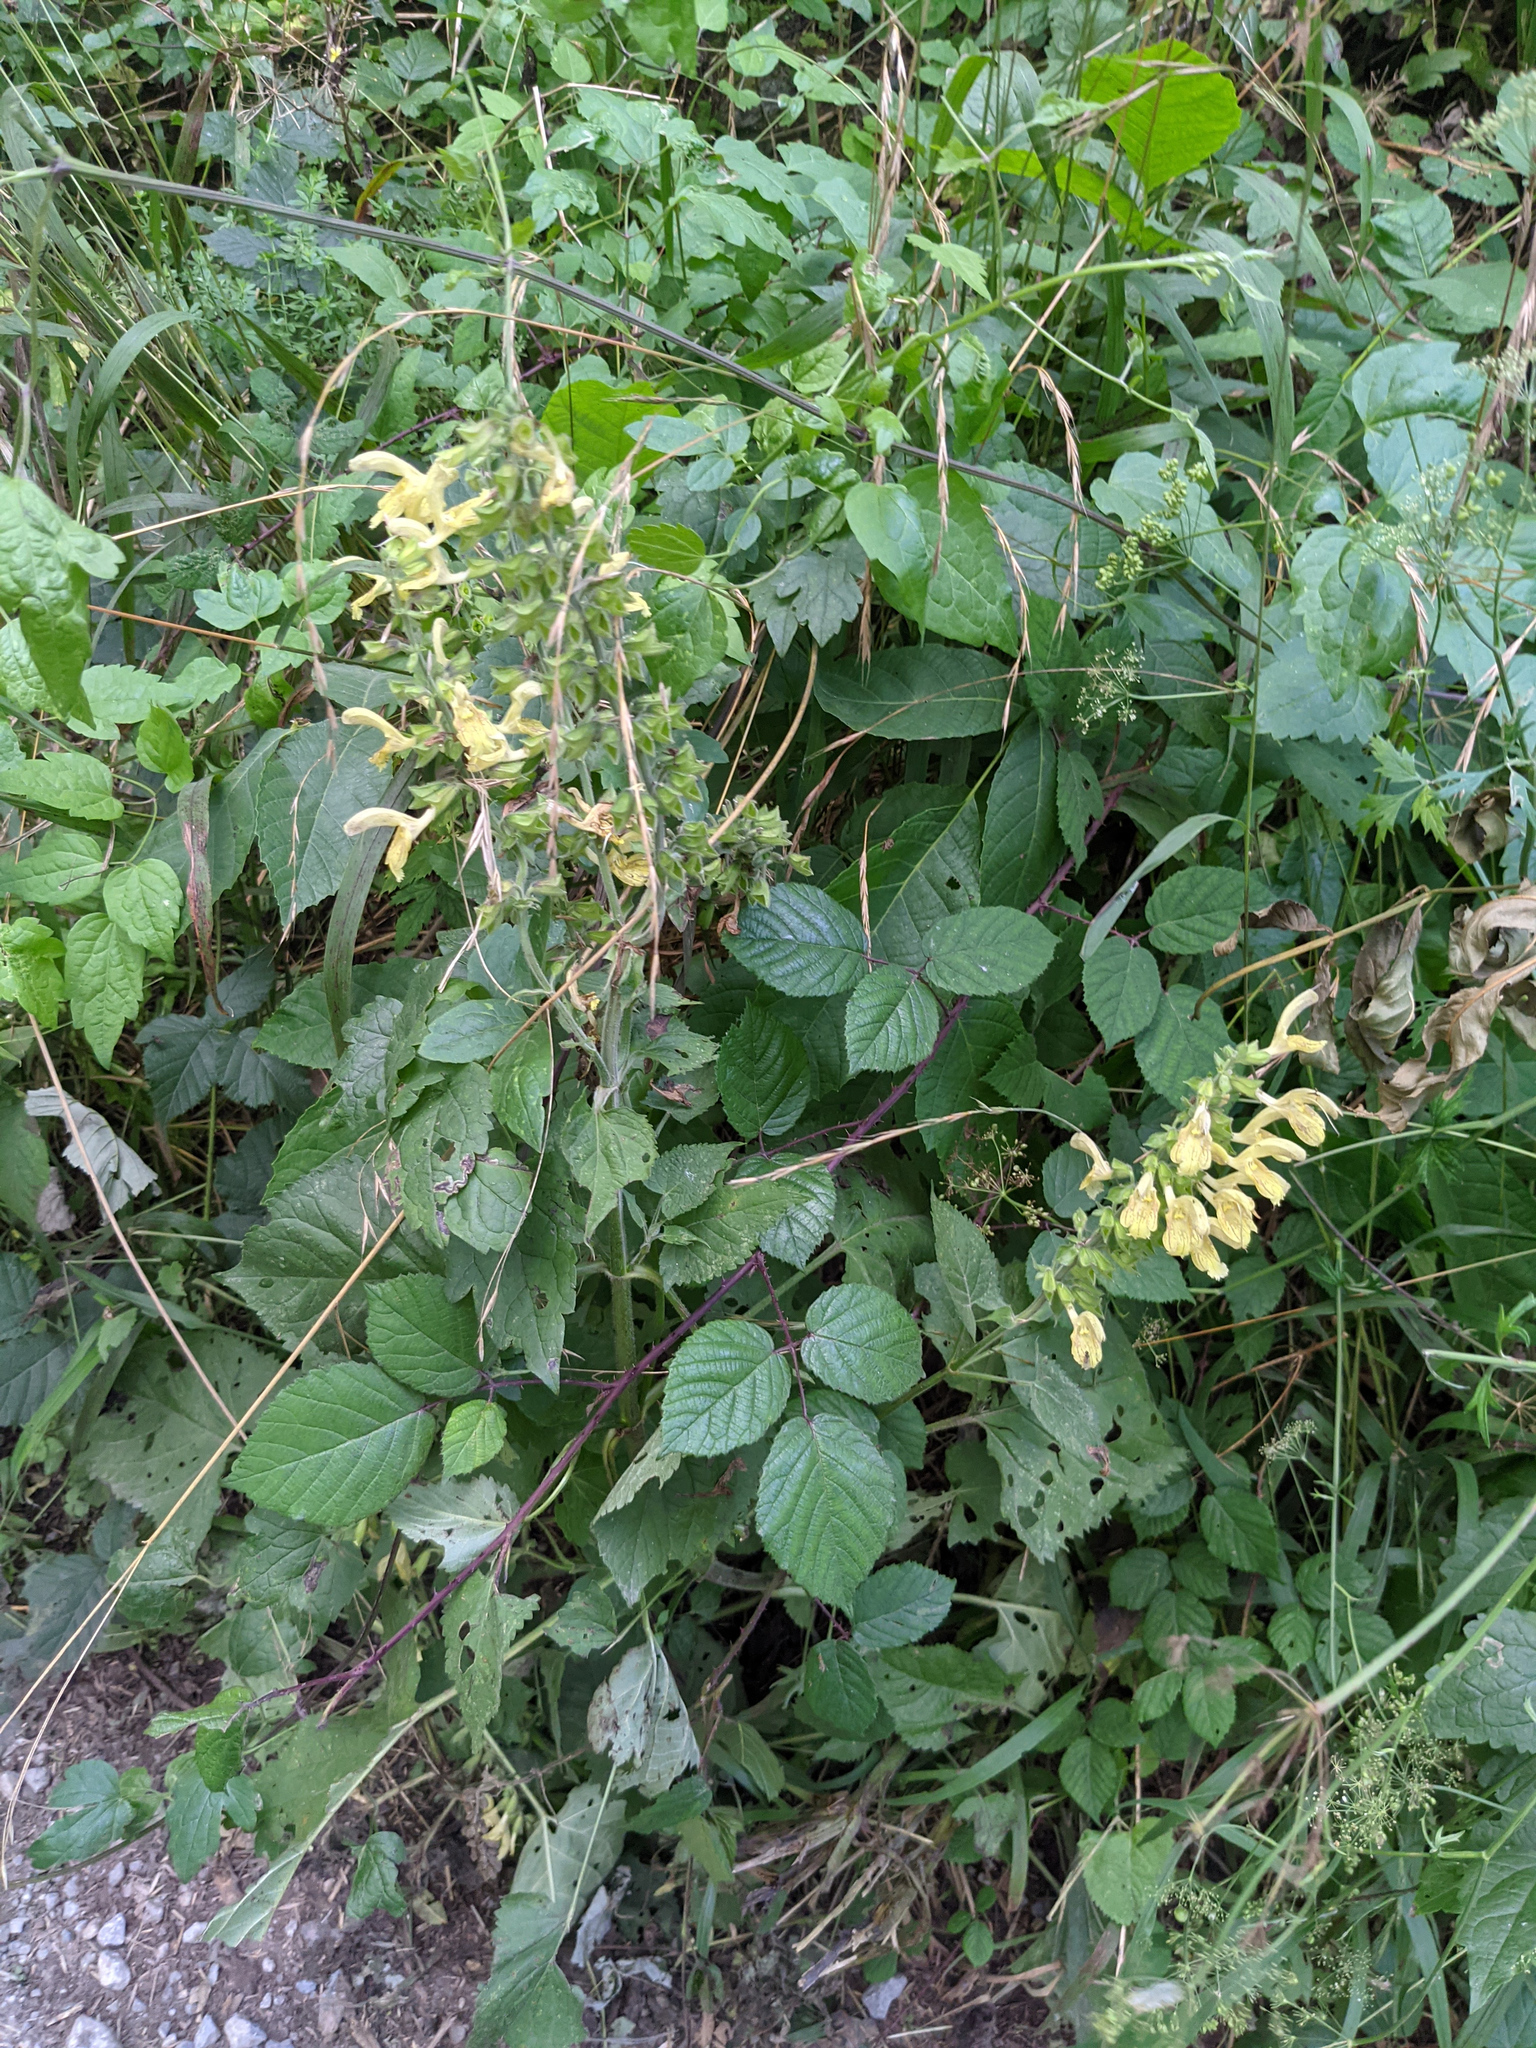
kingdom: Plantae
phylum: Tracheophyta
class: Magnoliopsida
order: Lamiales
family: Lamiaceae
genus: Salvia
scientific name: Salvia glutinosa
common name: Sticky clary
